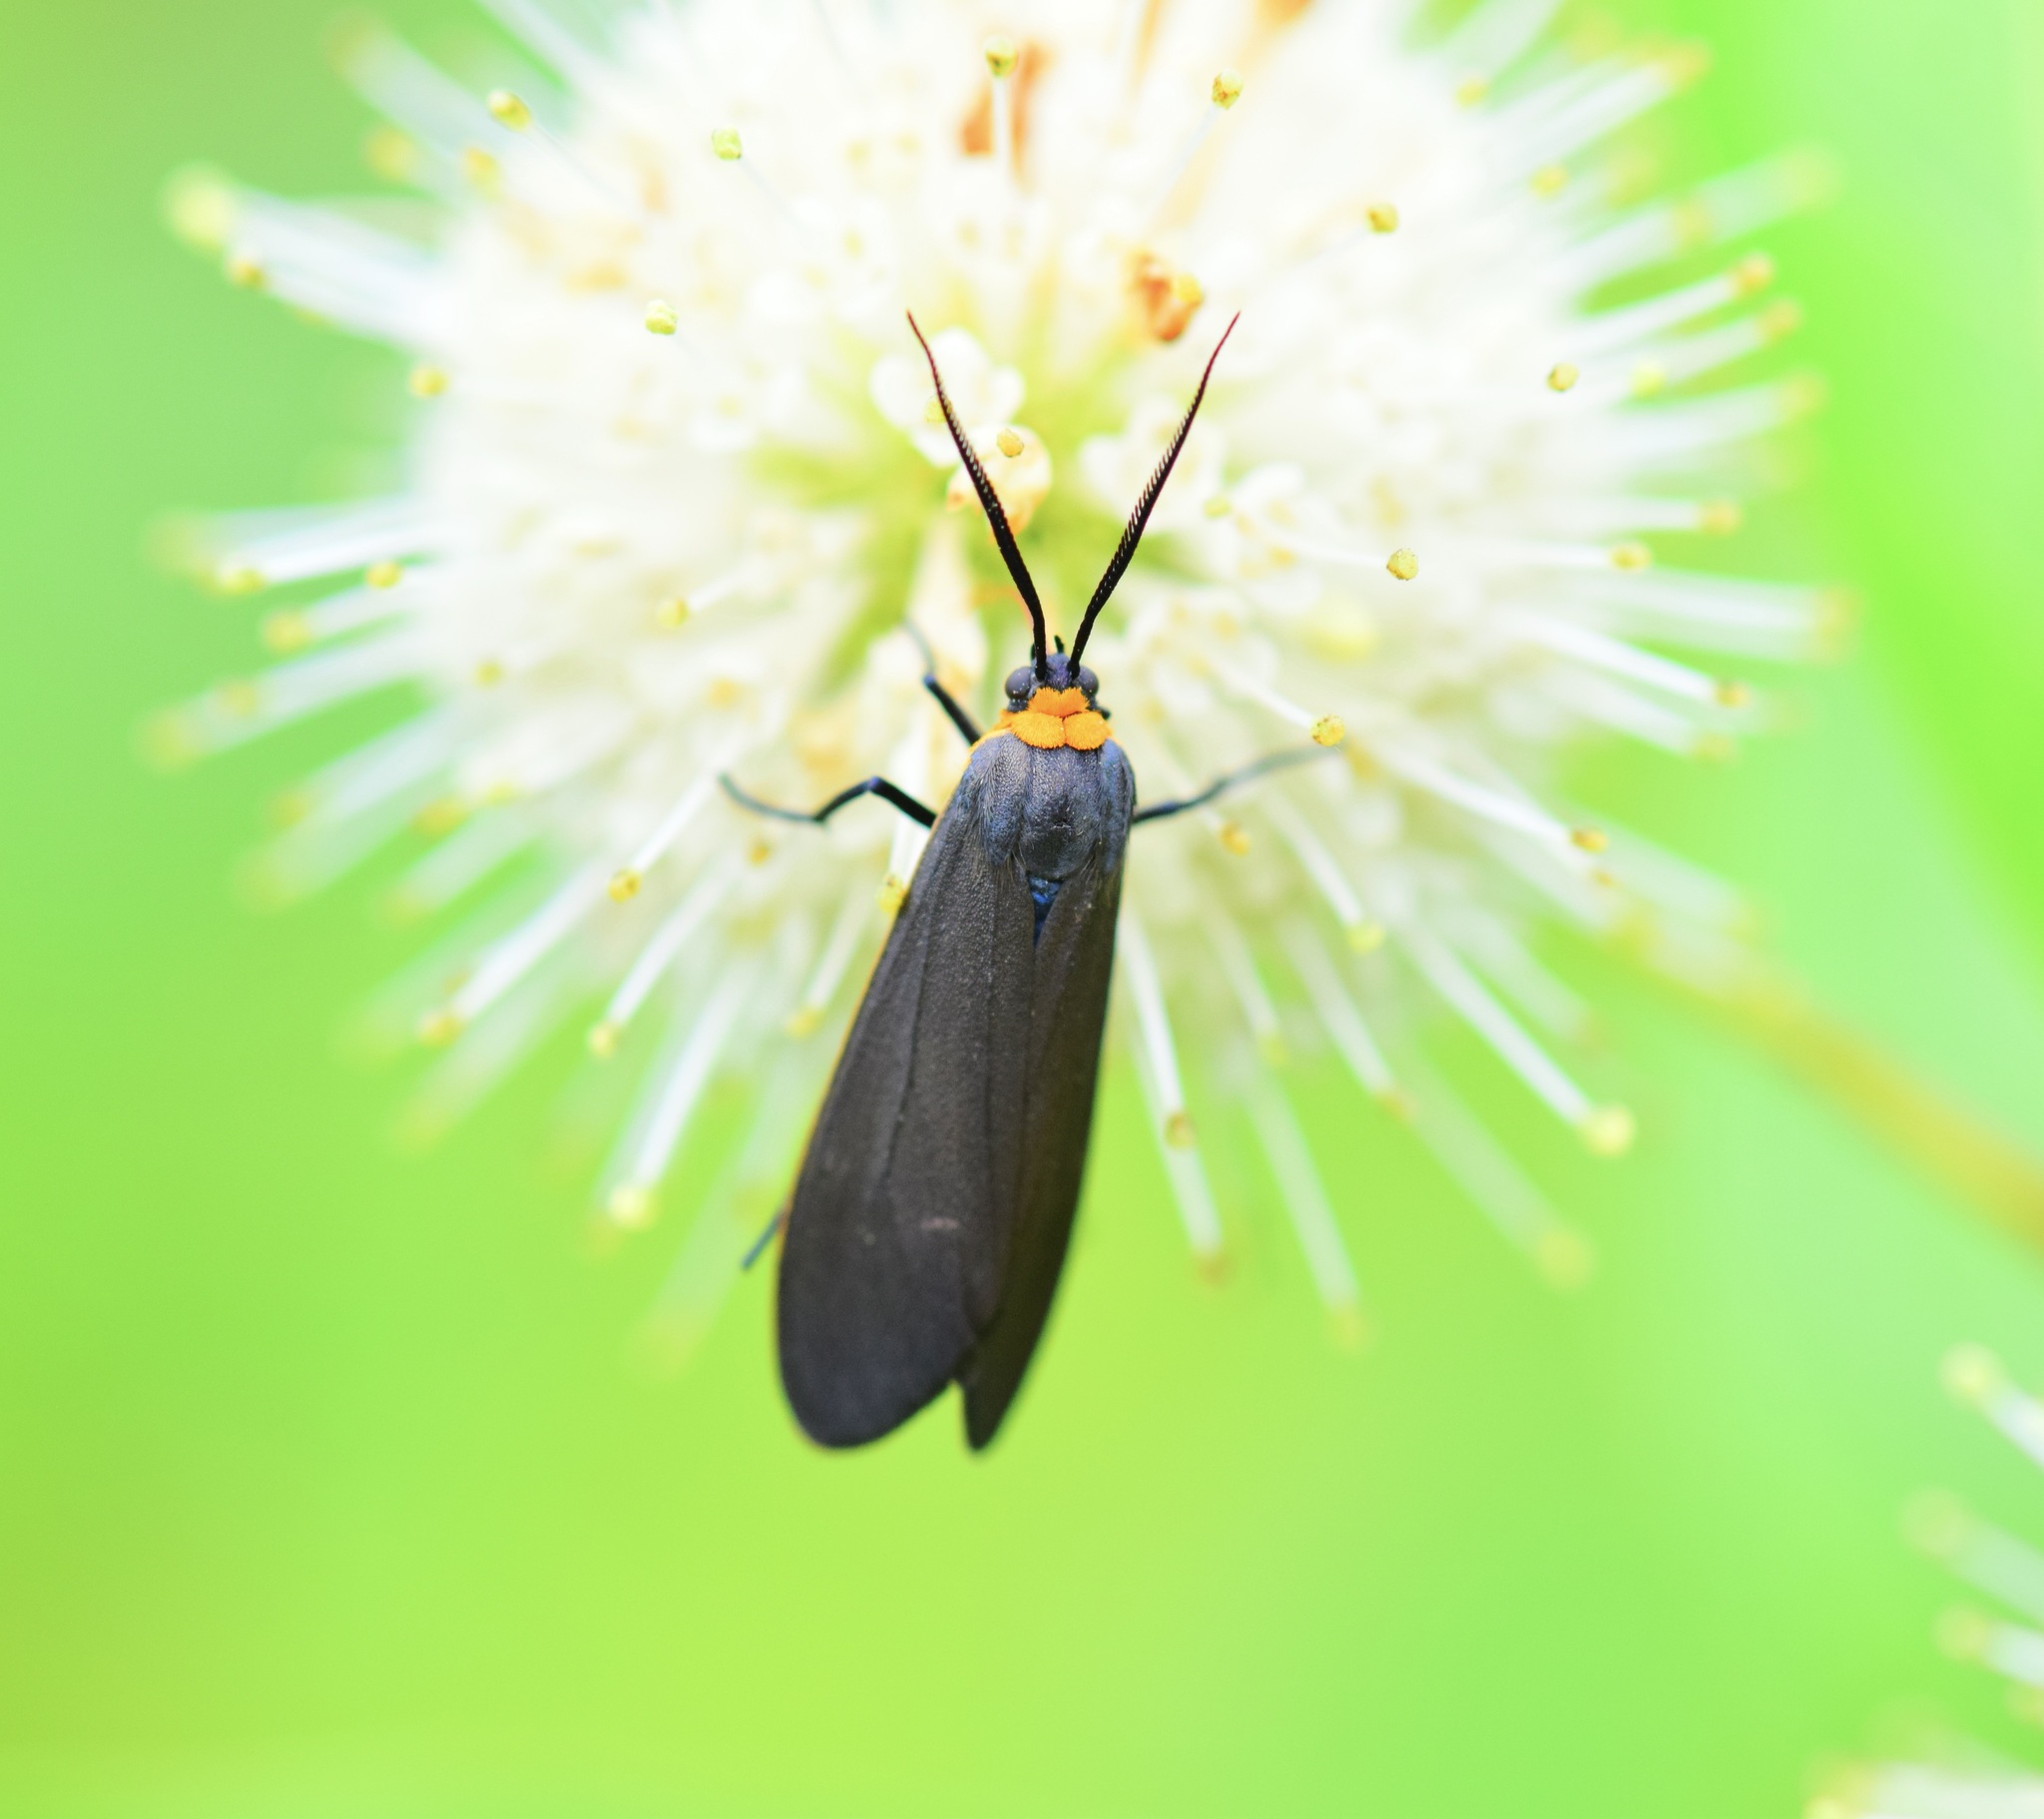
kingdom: Animalia
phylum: Arthropoda
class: Insecta
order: Lepidoptera
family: Erebidae
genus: Cisseps
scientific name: Cisseps fulvicollis
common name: Yellow-collared scape moth
